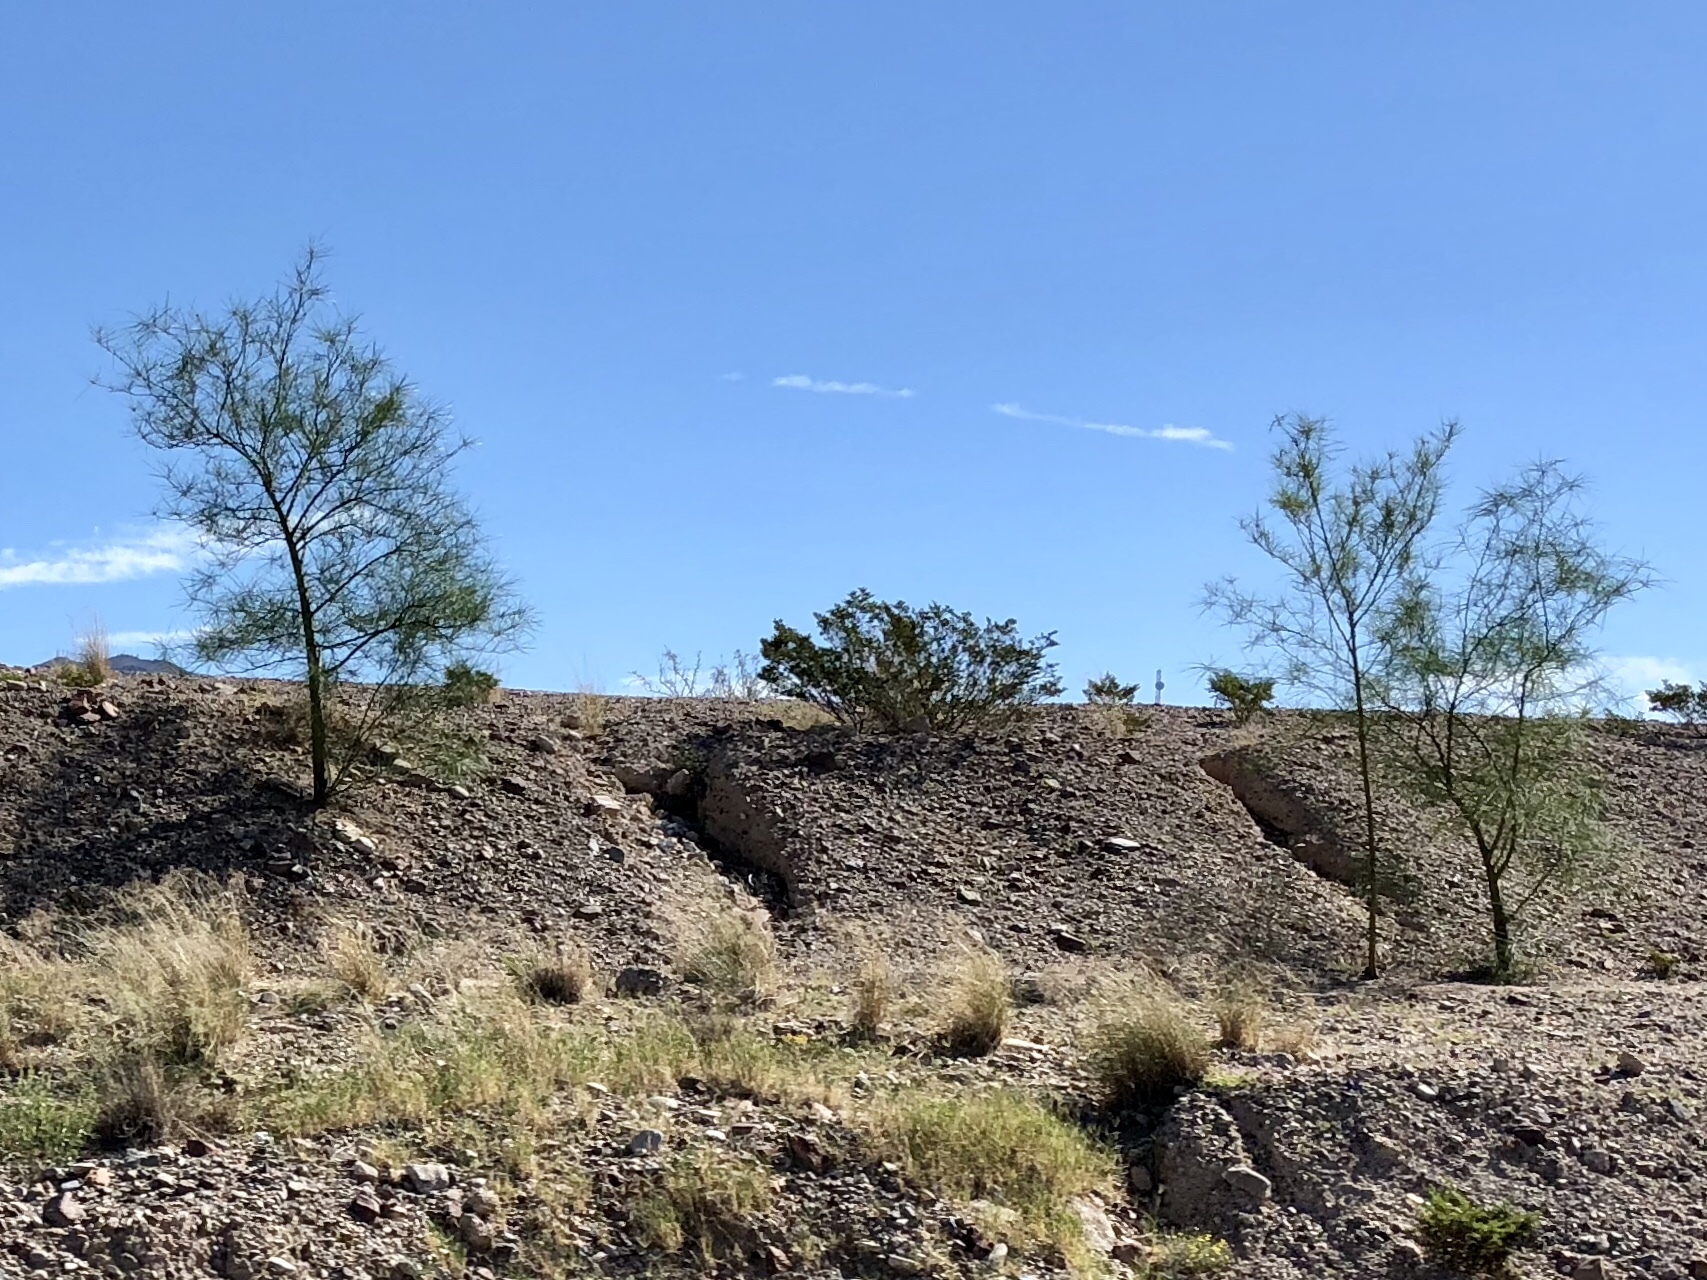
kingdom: Plantae
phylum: Tracheophyta
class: Magnoliopsida
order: Fabales
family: Fabaceae
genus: Parkinsonia
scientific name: Parkinsonia aculeata
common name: Jerusalem thorn
